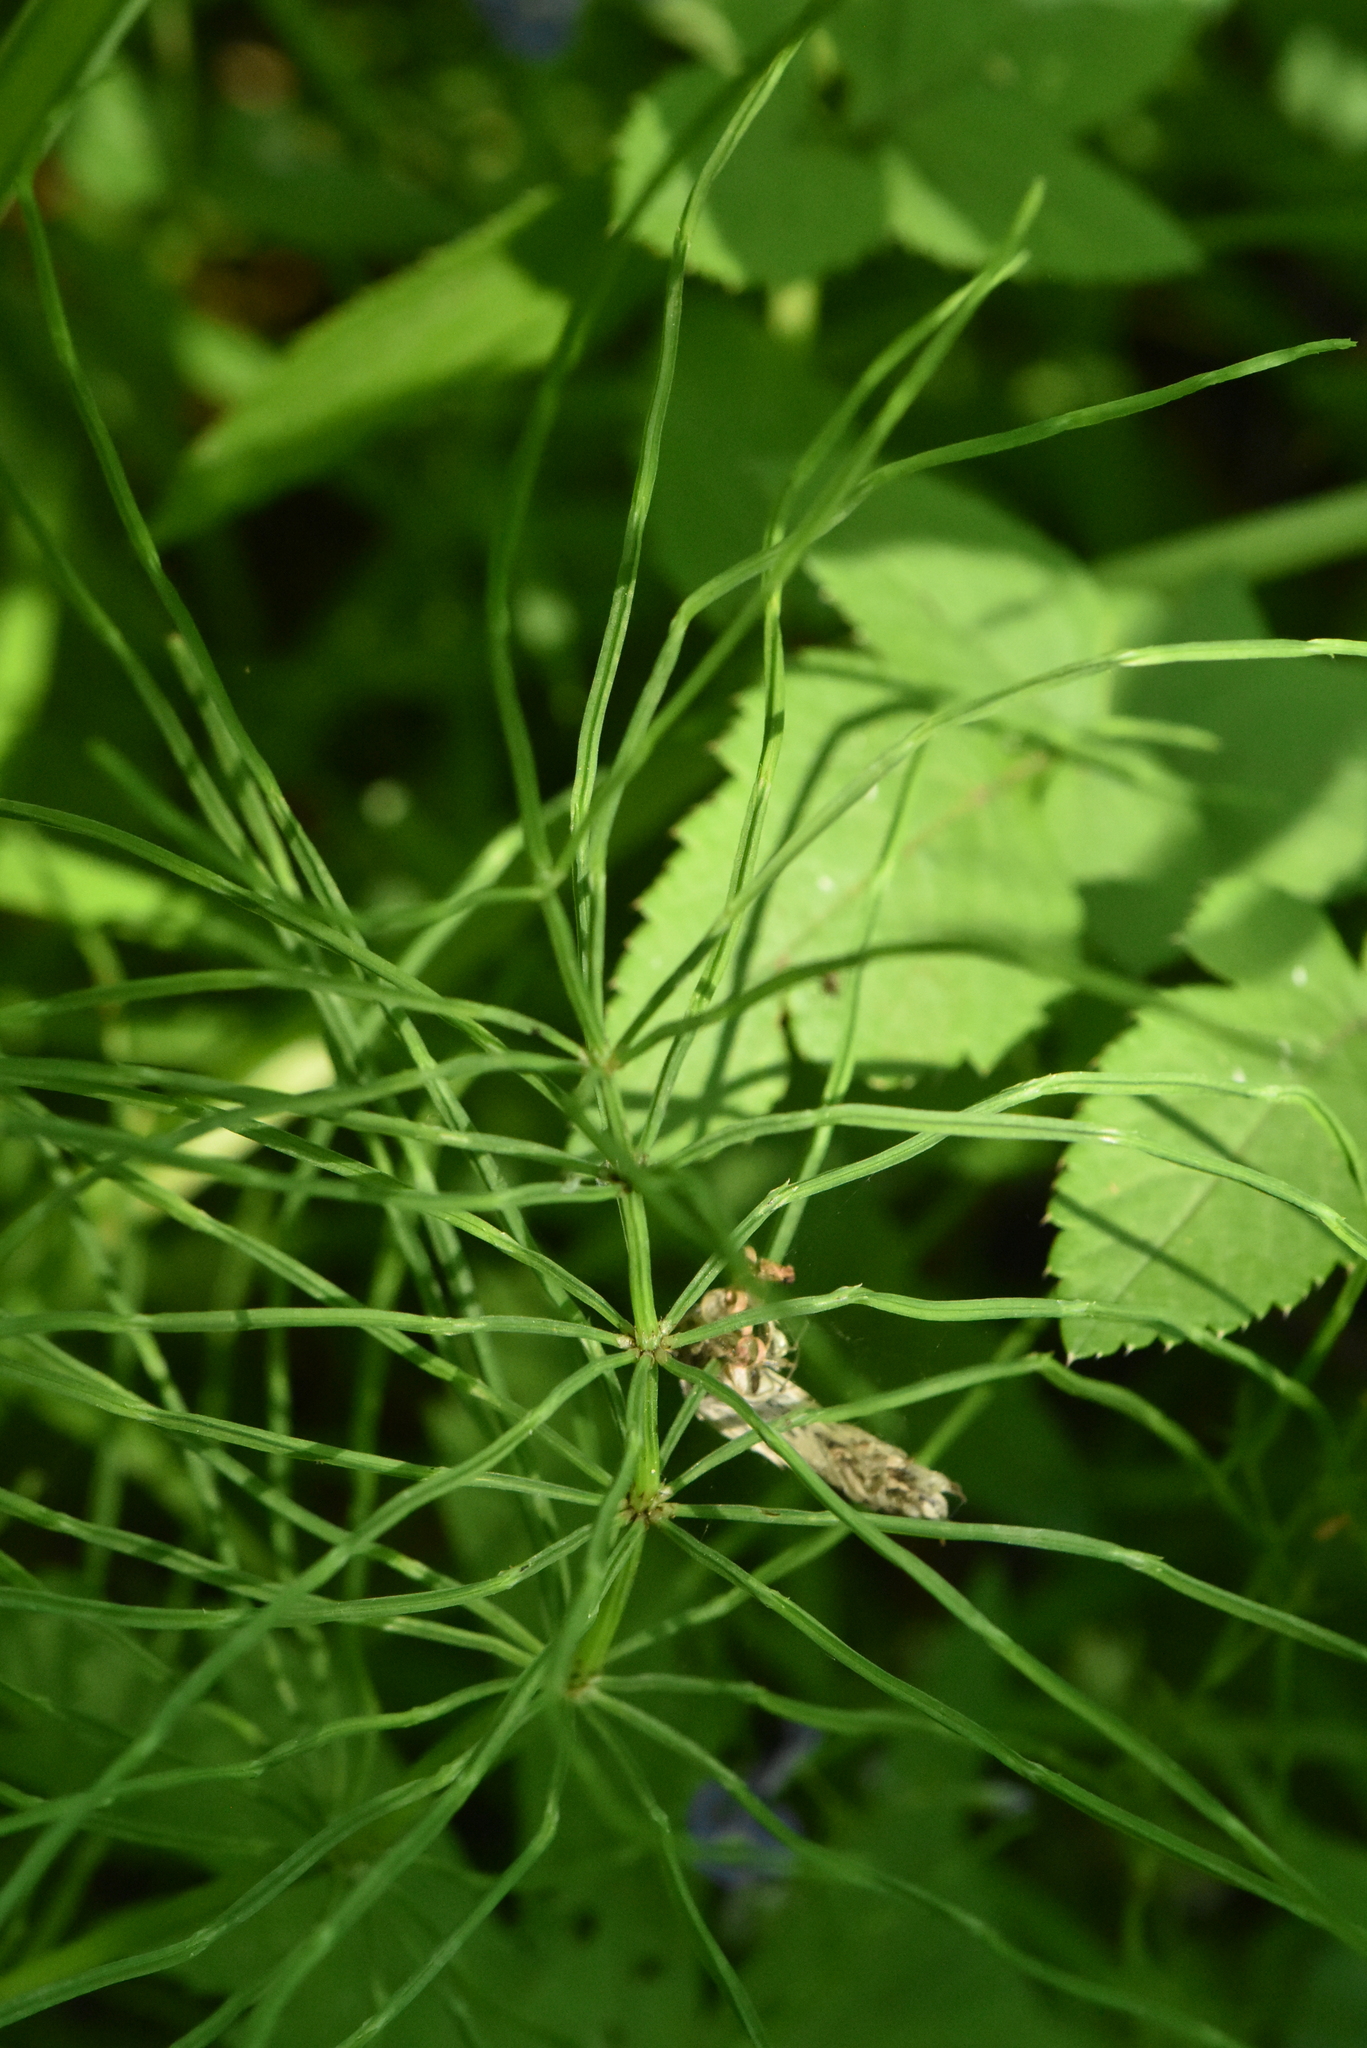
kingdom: Plantae
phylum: Tracheophyta
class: Polypodiopsida
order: Equisetales
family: Equisetaceae
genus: Equisetum
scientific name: Equisetum arvense
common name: Field horsetail
